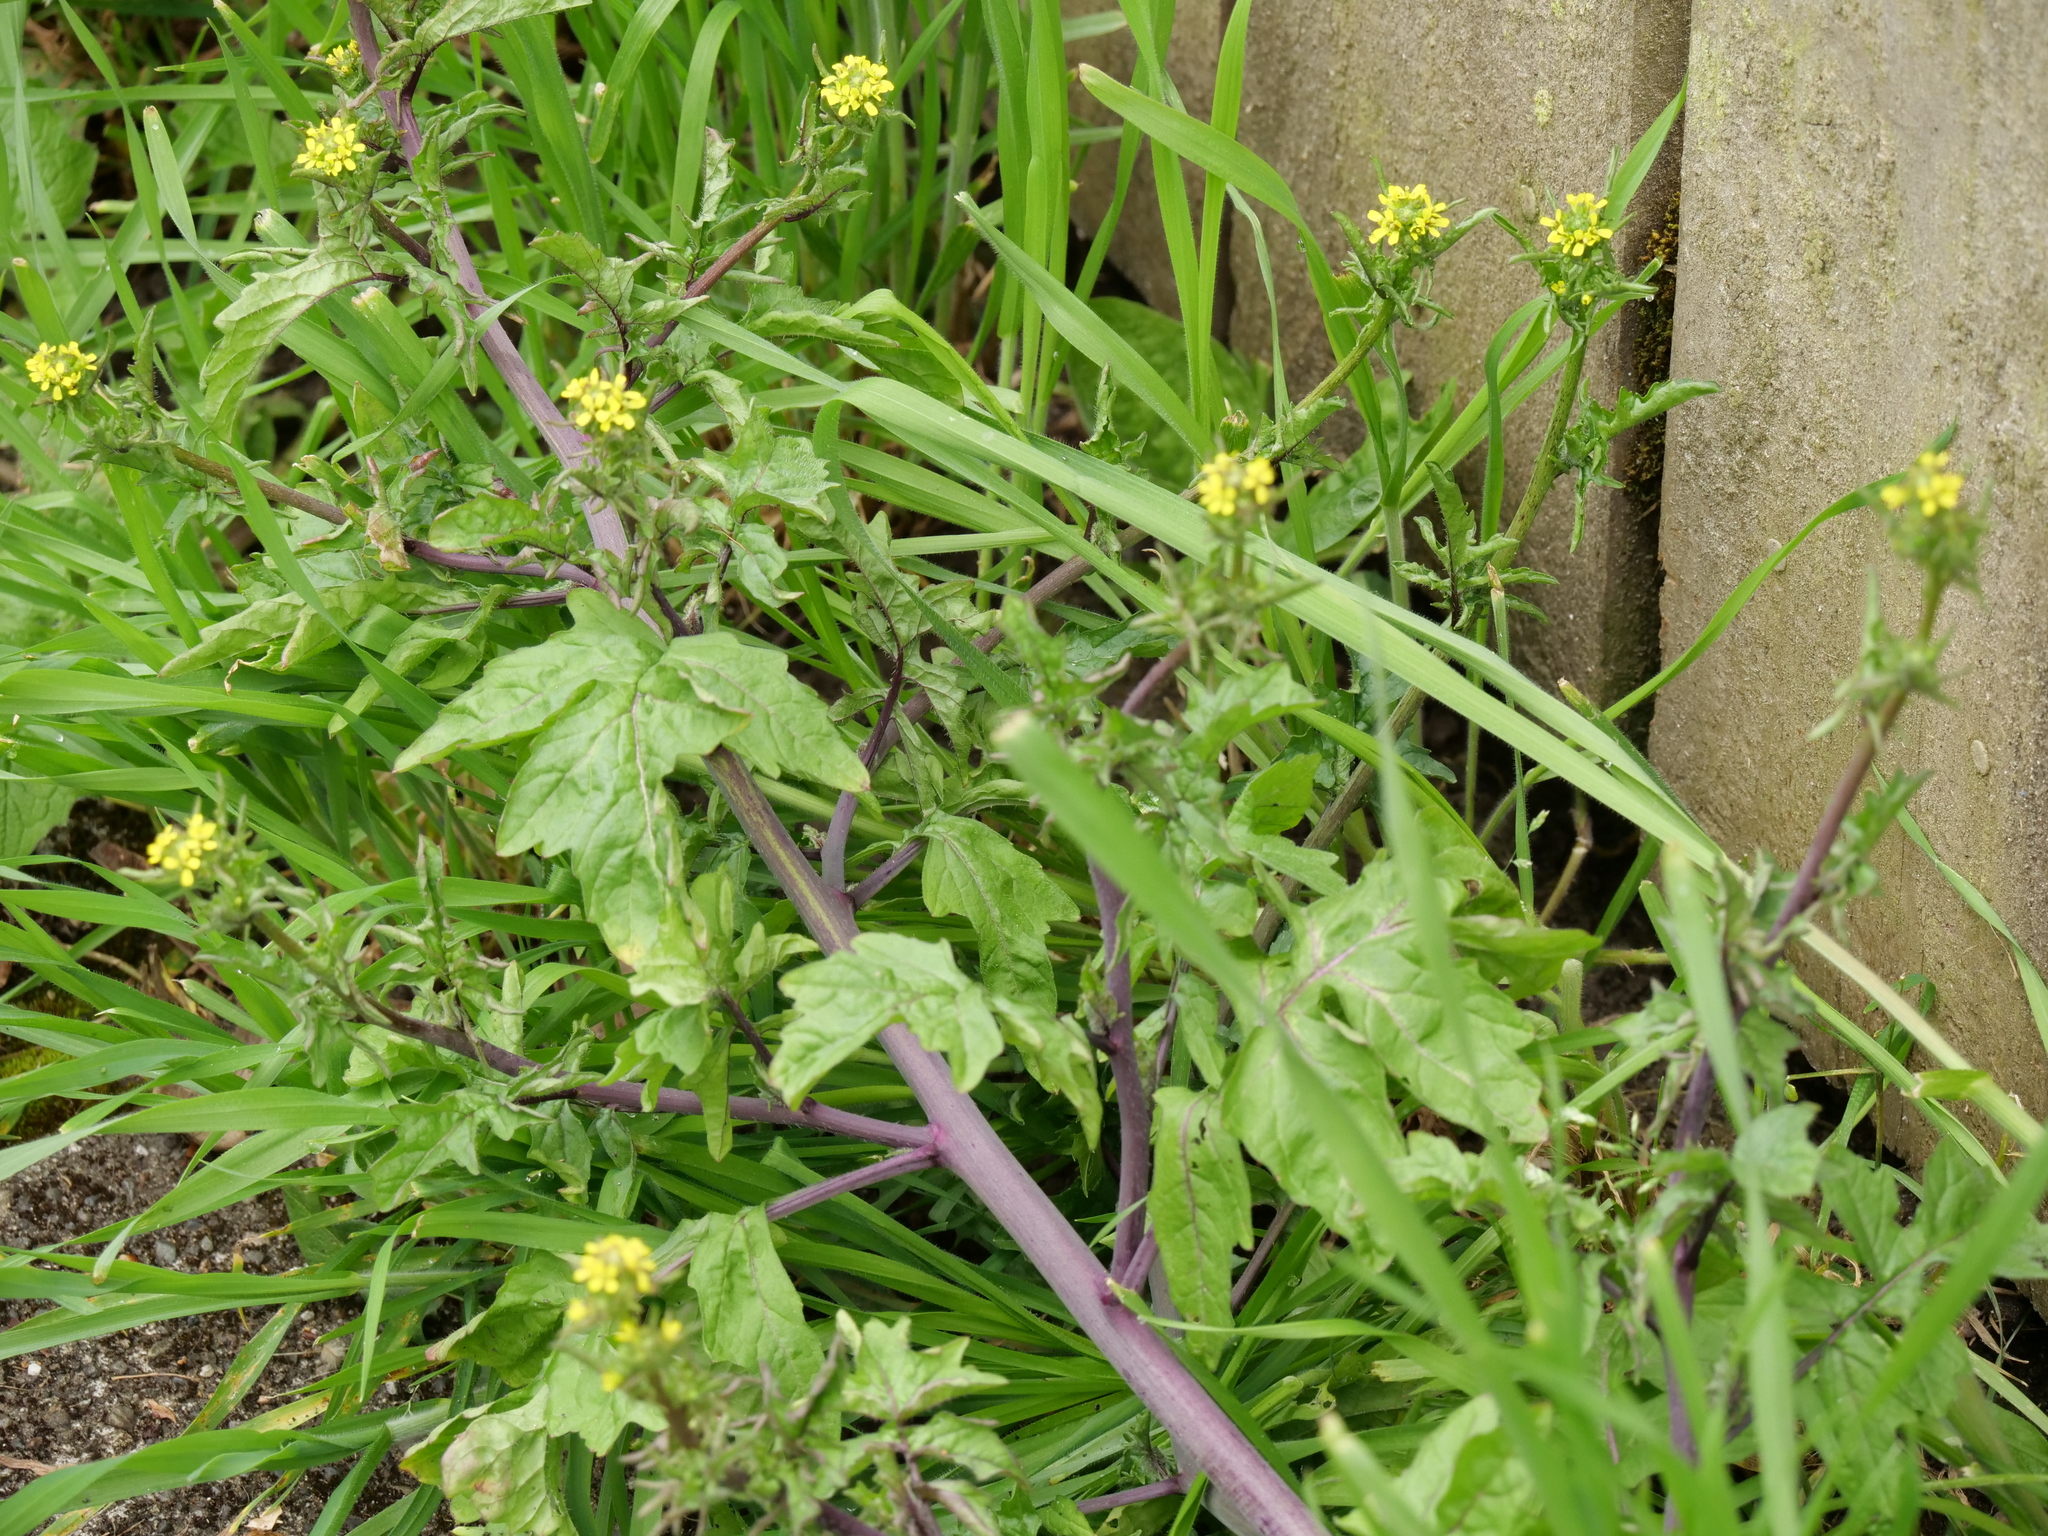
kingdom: Plantae
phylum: Tracheophyta
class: Magnoliopsida
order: Brassicales
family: Brassicaceae
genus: Sisymbrium
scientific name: Sisymbrium officinale
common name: Hedge mustard
